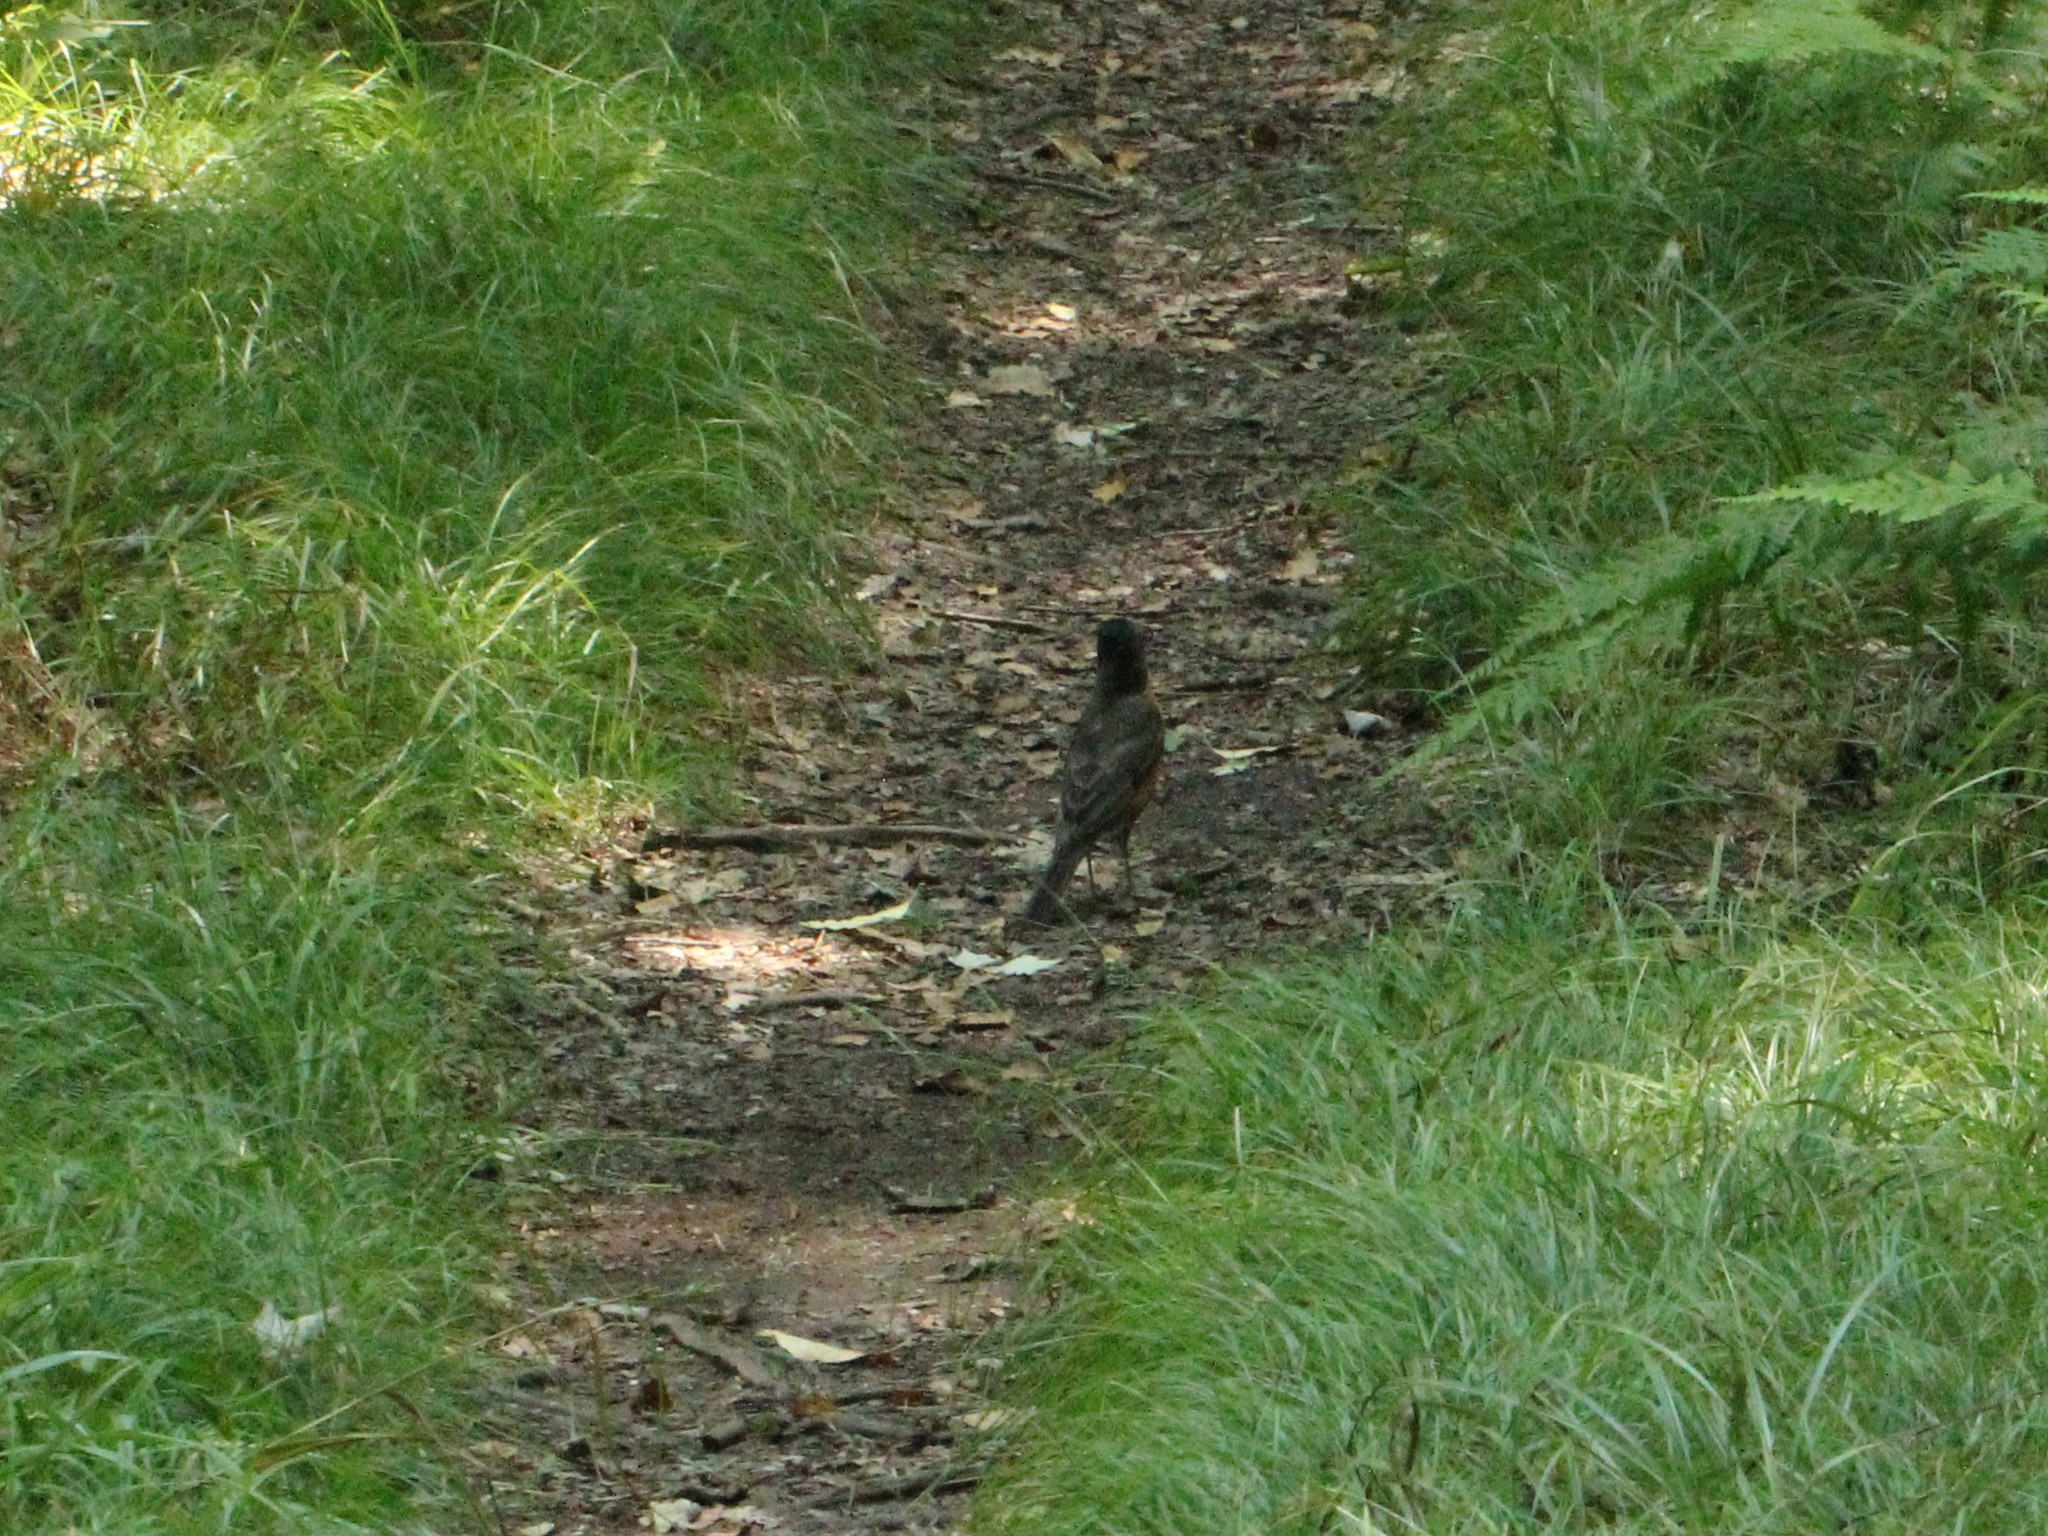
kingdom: Animalia
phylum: Chordata
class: Aves
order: Passeriformes
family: Turdidae
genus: Turdus
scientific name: Turdus migratorius
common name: American robin
